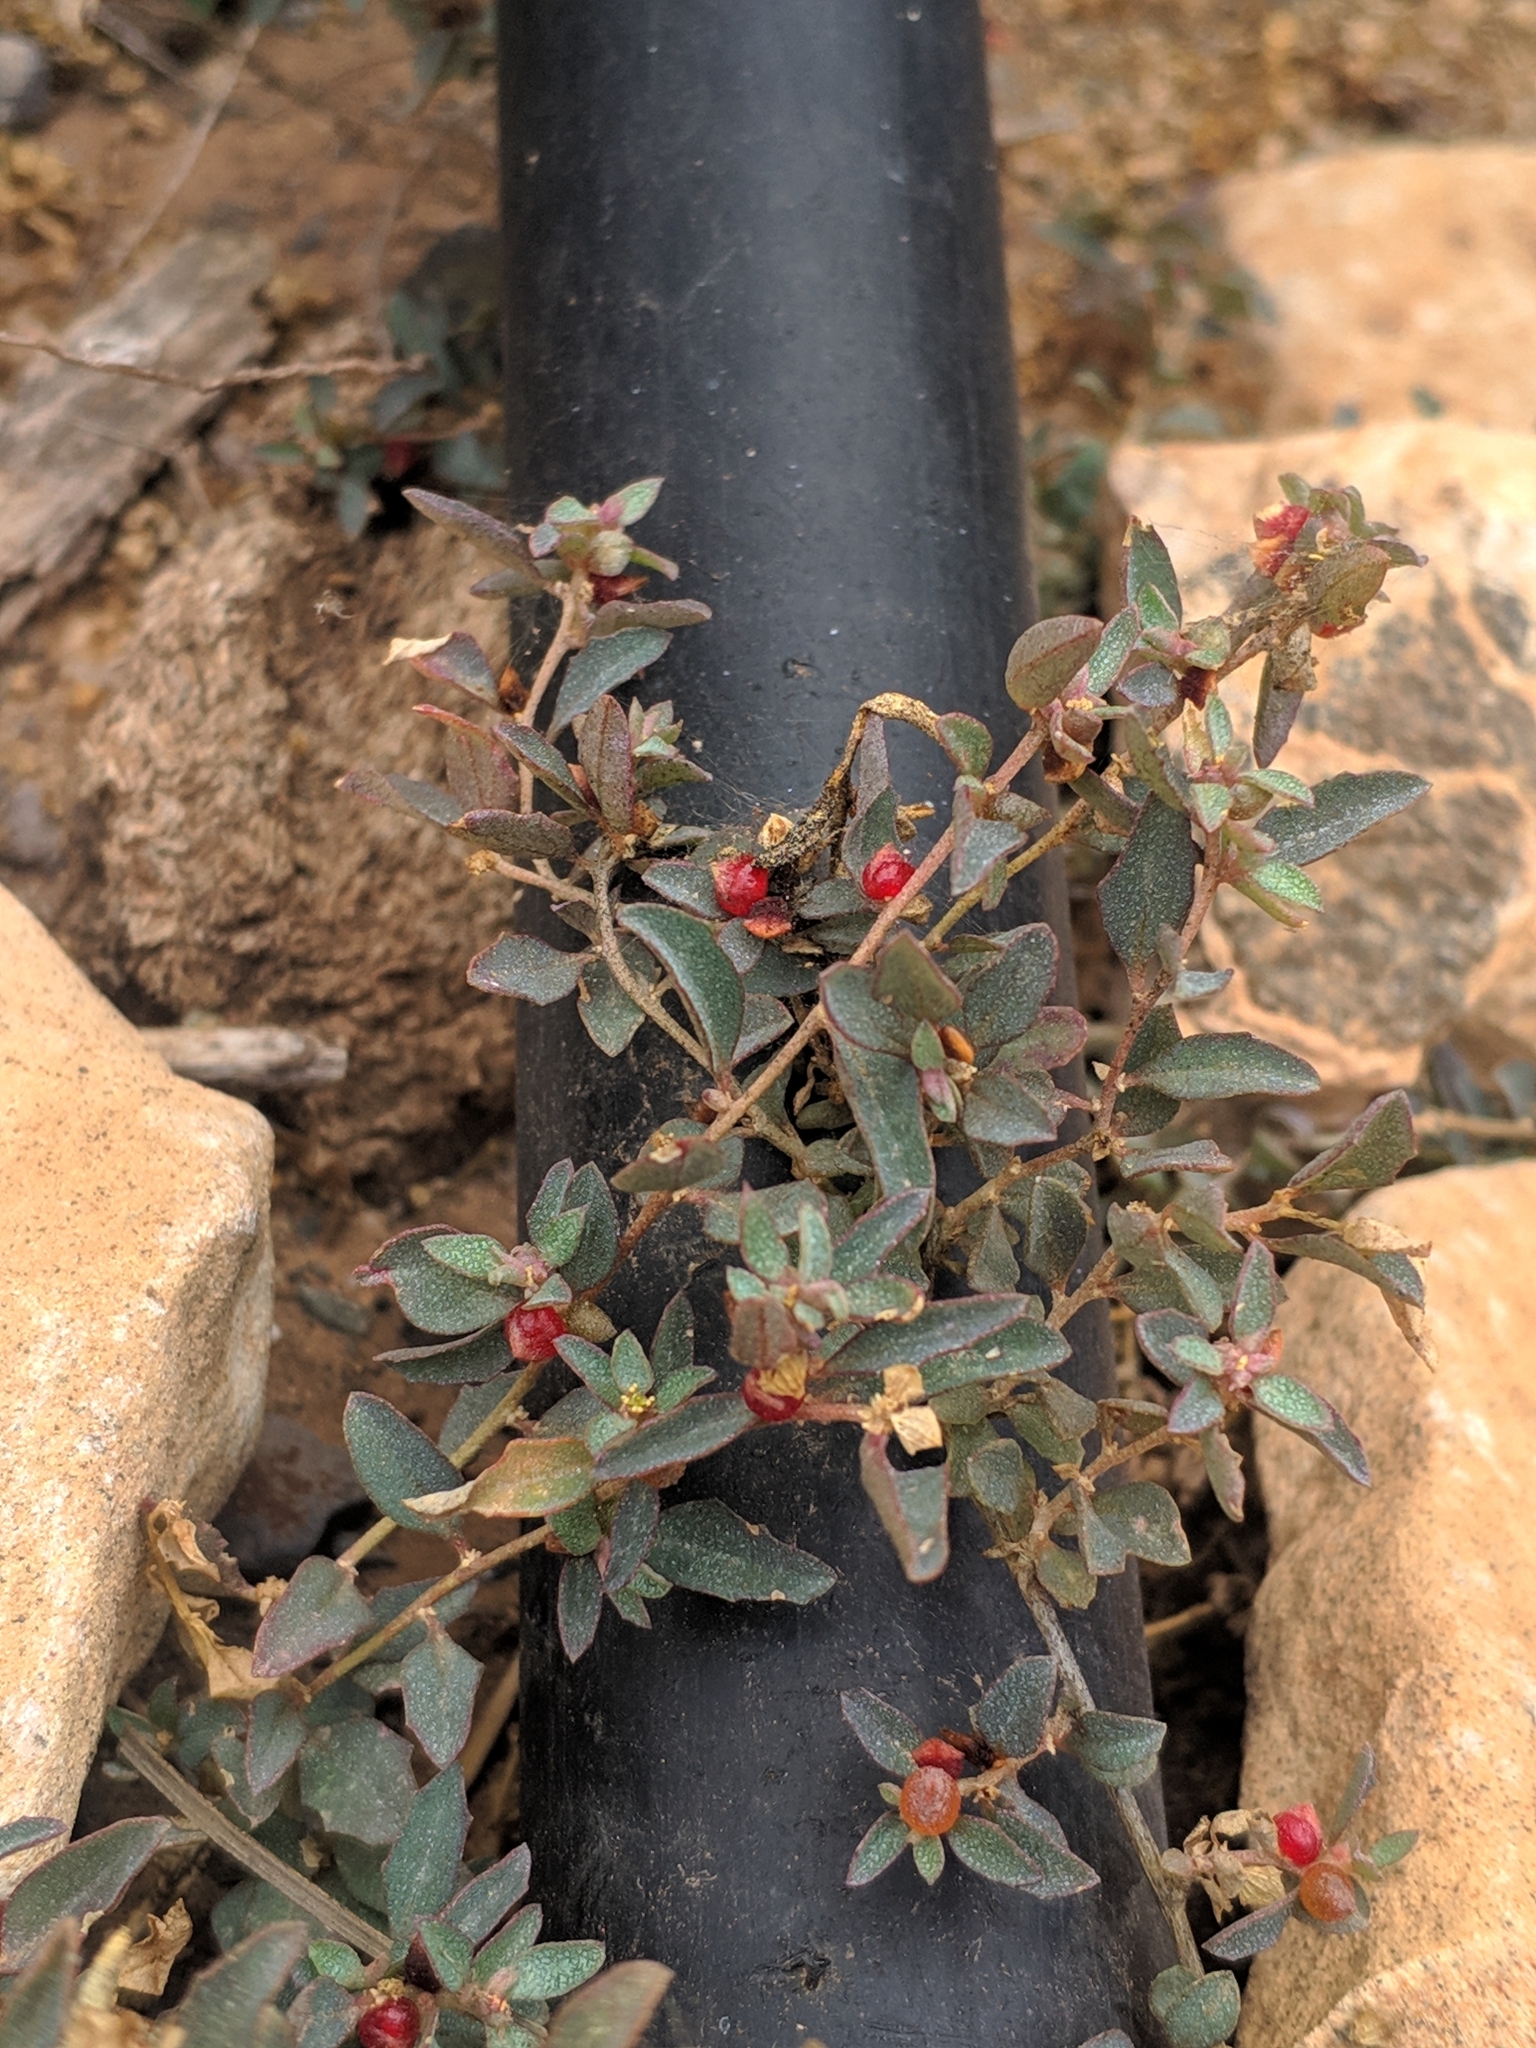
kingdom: Plantae
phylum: Tracheophyta
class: Magnoliopsida
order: Caryophyllales
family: Amaranthaceae
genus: Atriplex
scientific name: Atriplex semibaccata
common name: Australian saltbush
